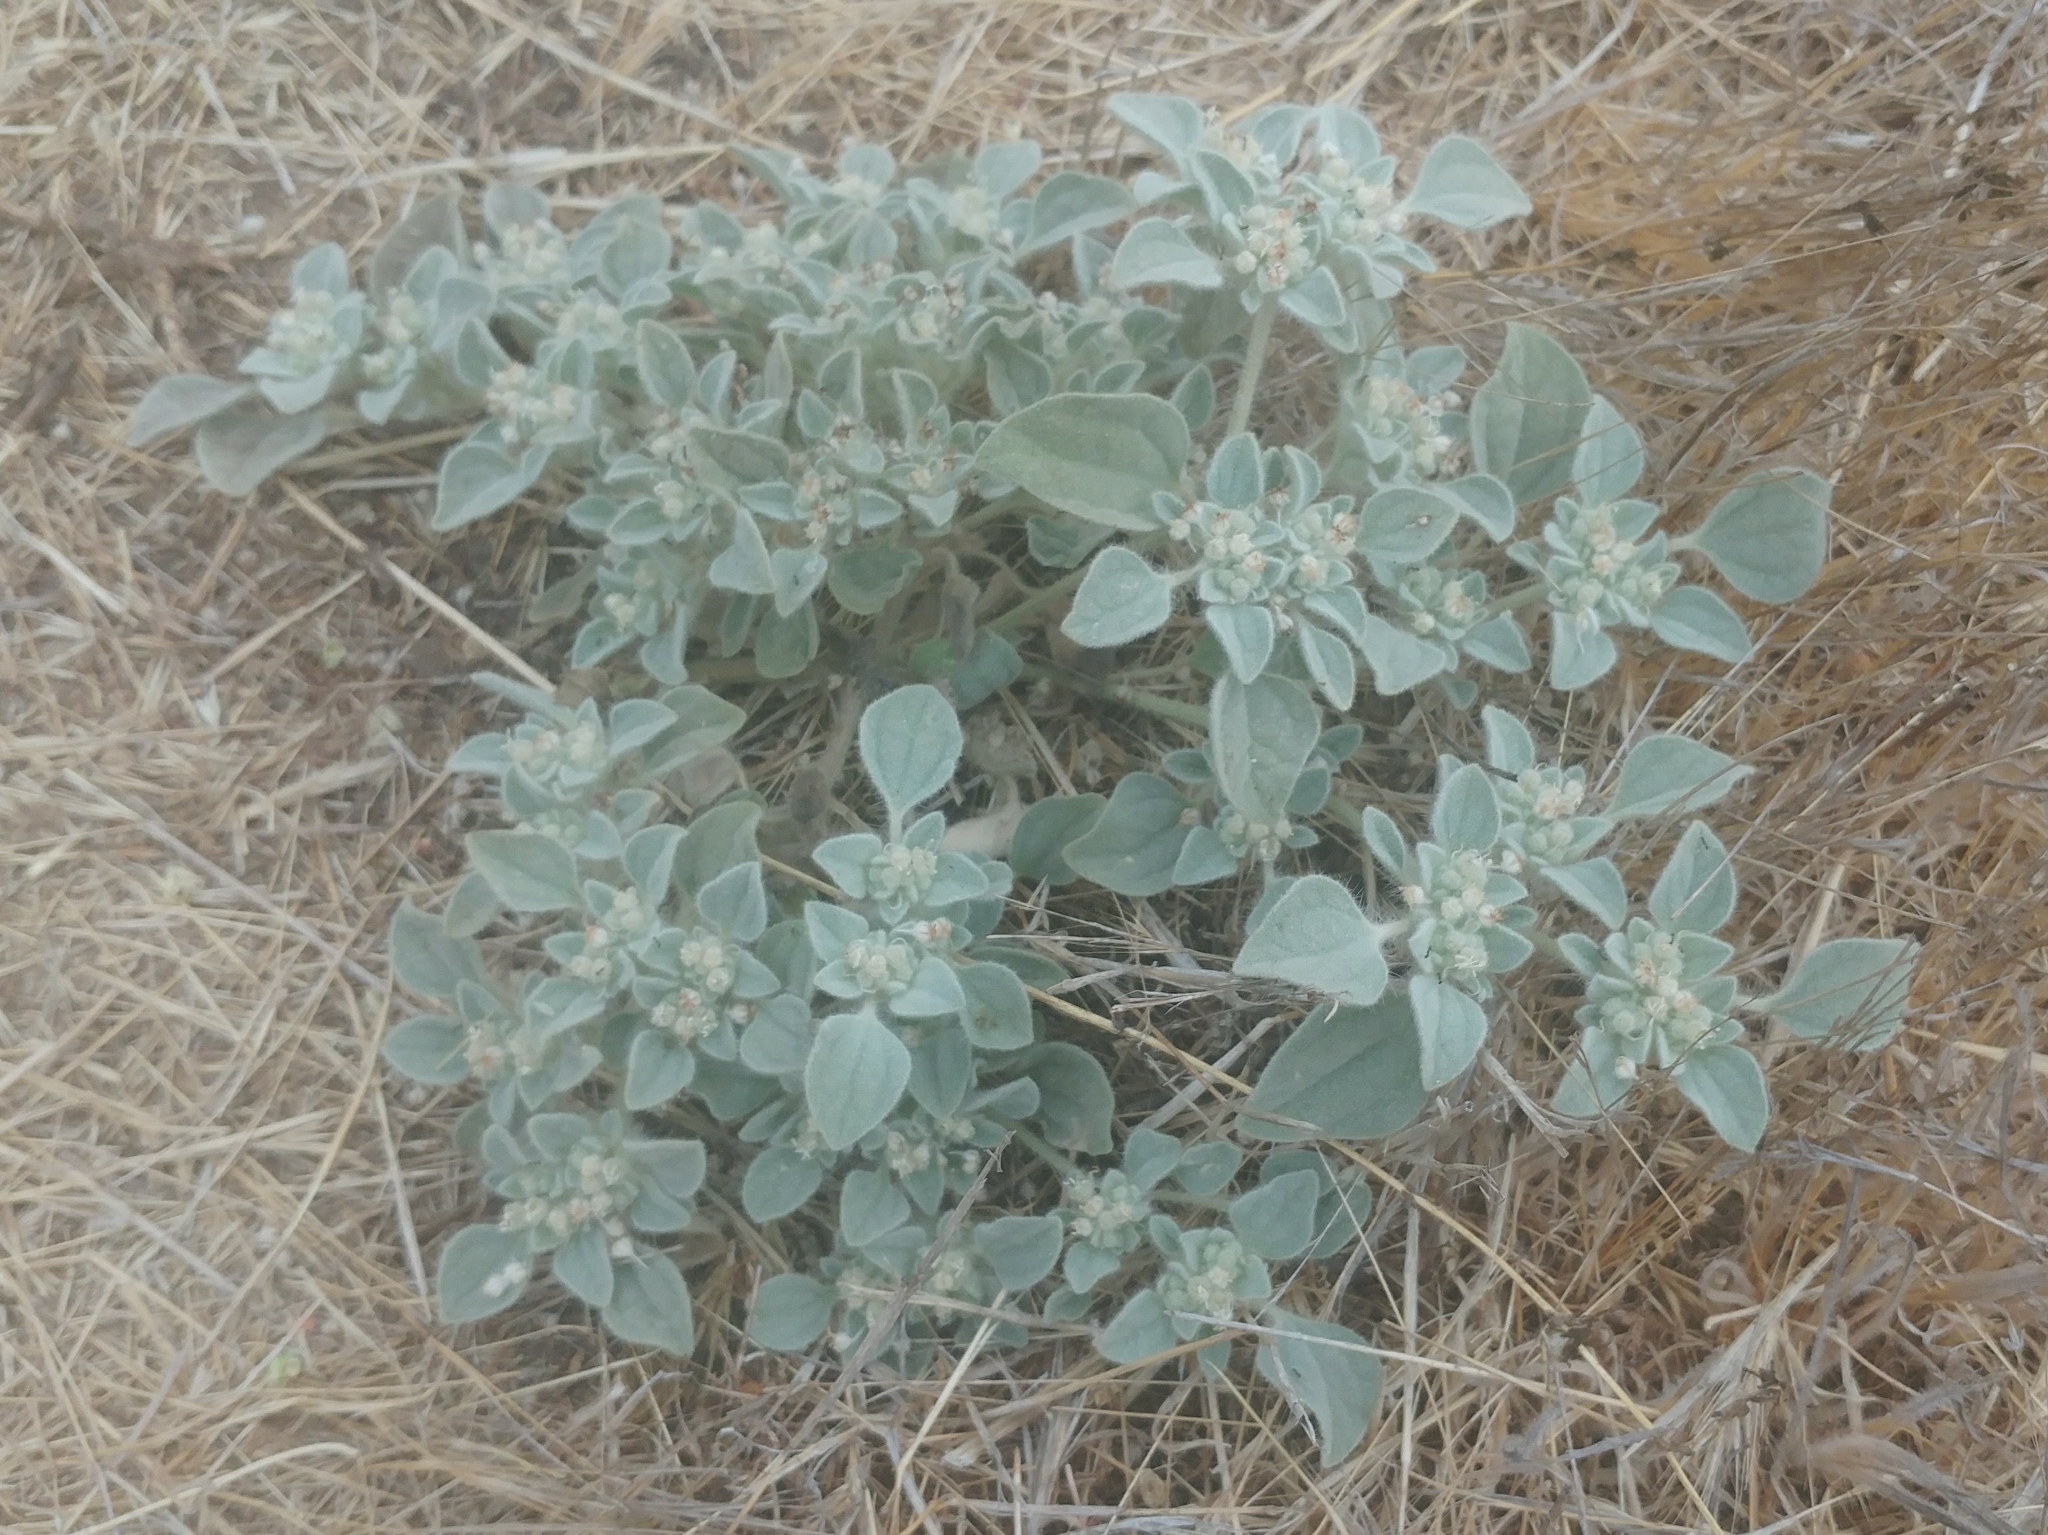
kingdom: Plantae
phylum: Tracheophyta
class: Magnoliopsida
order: Malpighiales
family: Euphorbiaceae
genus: Croton
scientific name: Croton setiger
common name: Dove weed
